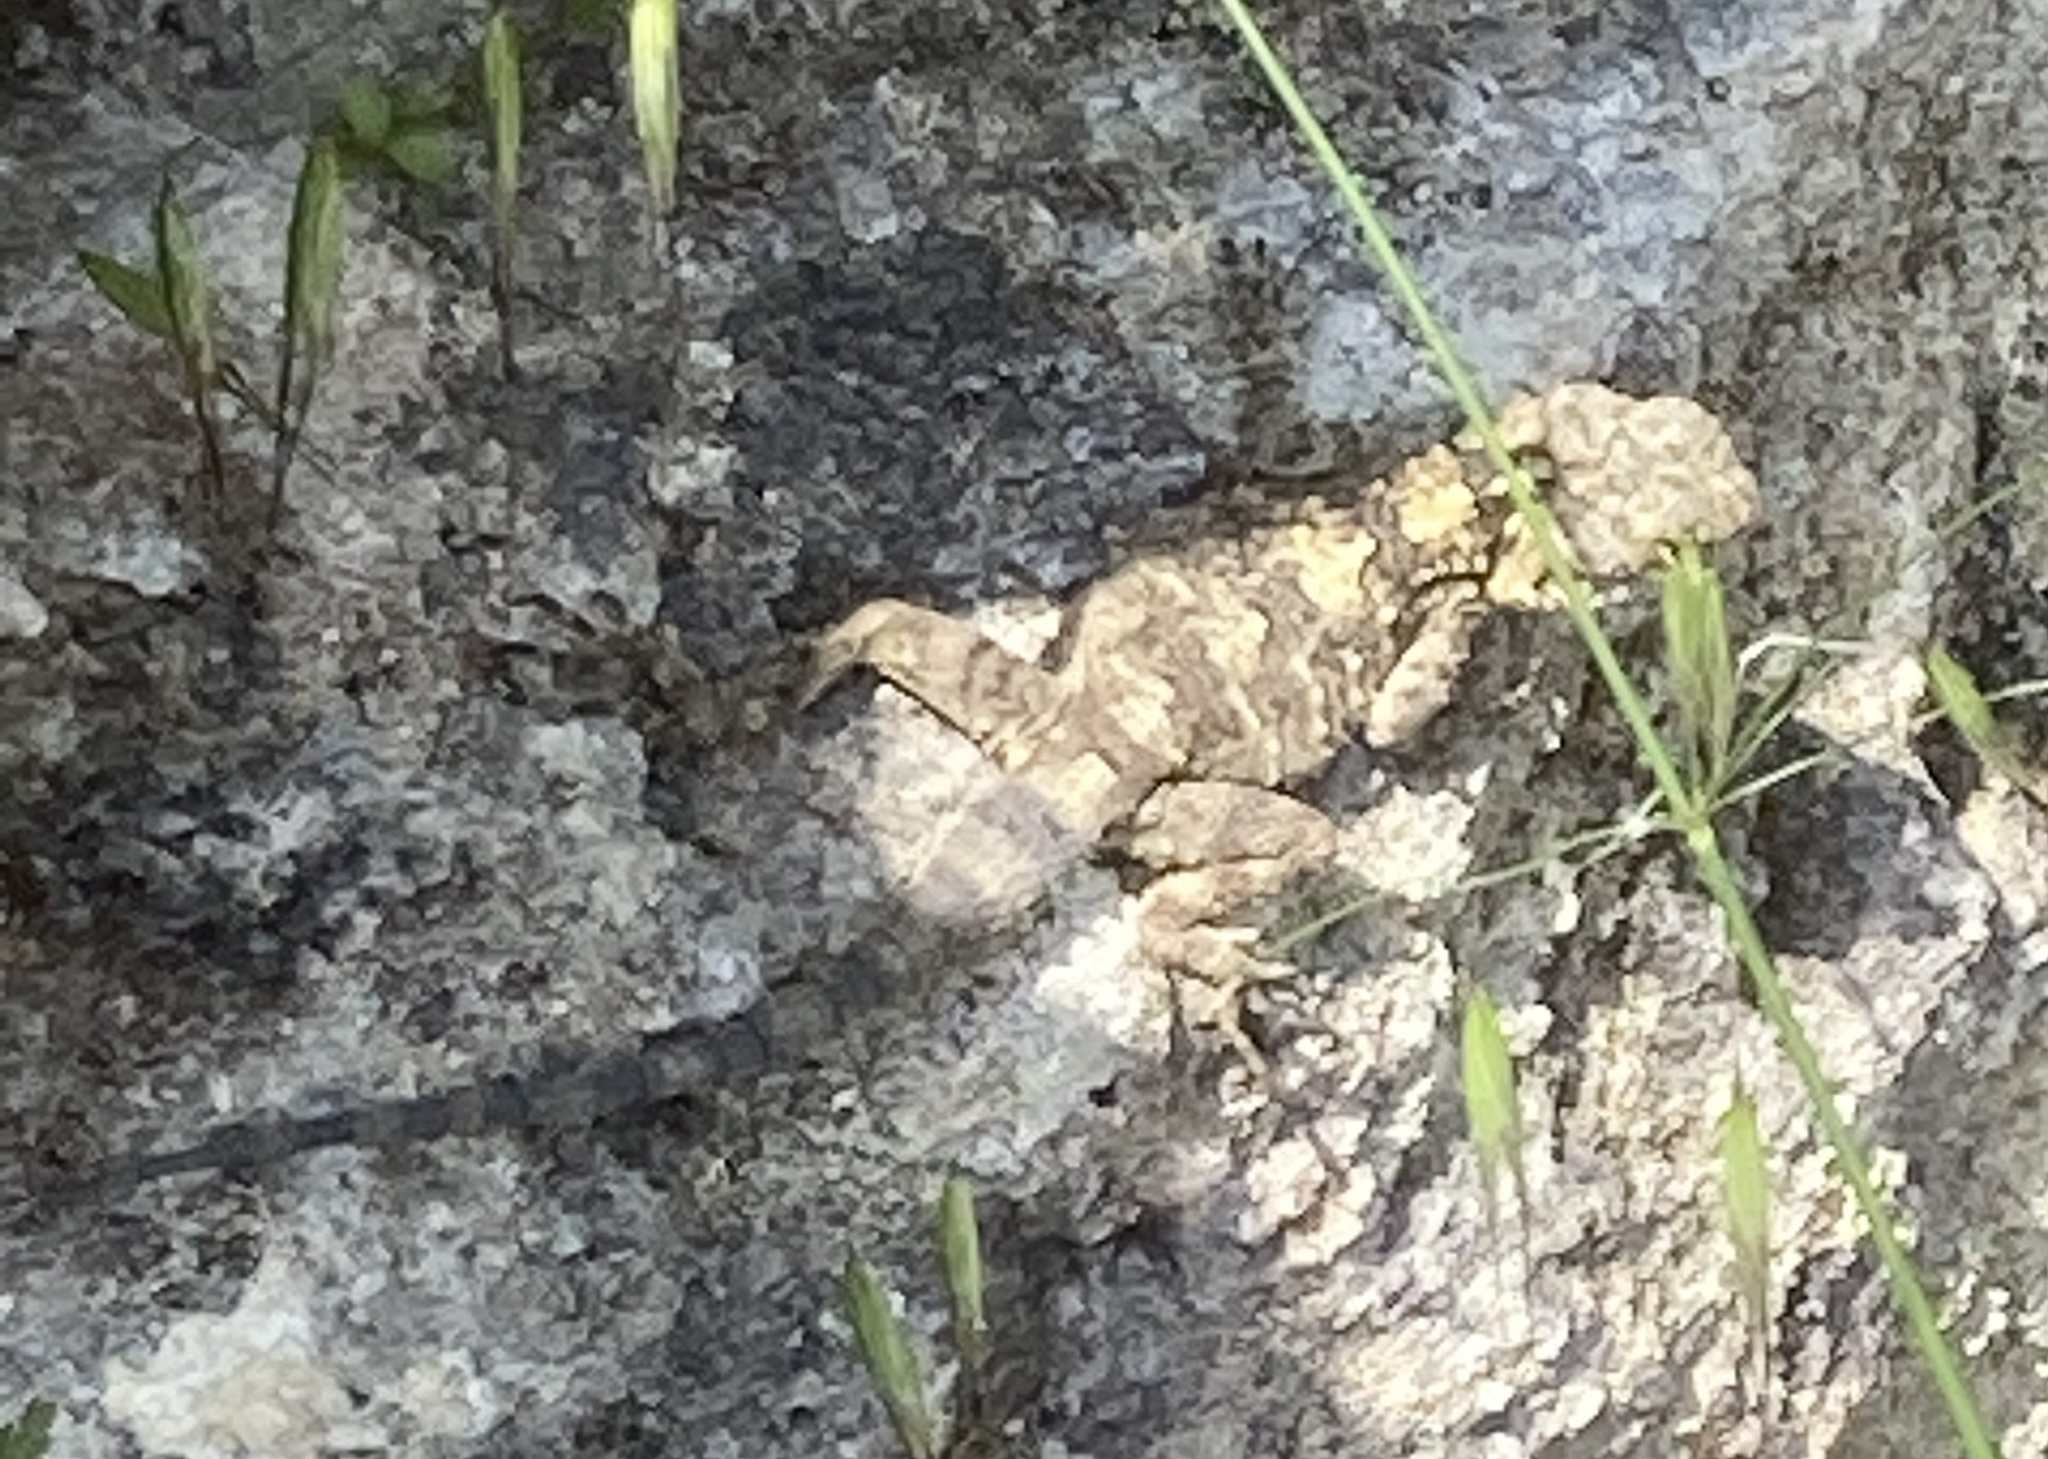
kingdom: Animalia
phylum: Chordata
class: Squamata
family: Agamidae
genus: Stellagama
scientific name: Stellagama stellio
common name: Starred agama
